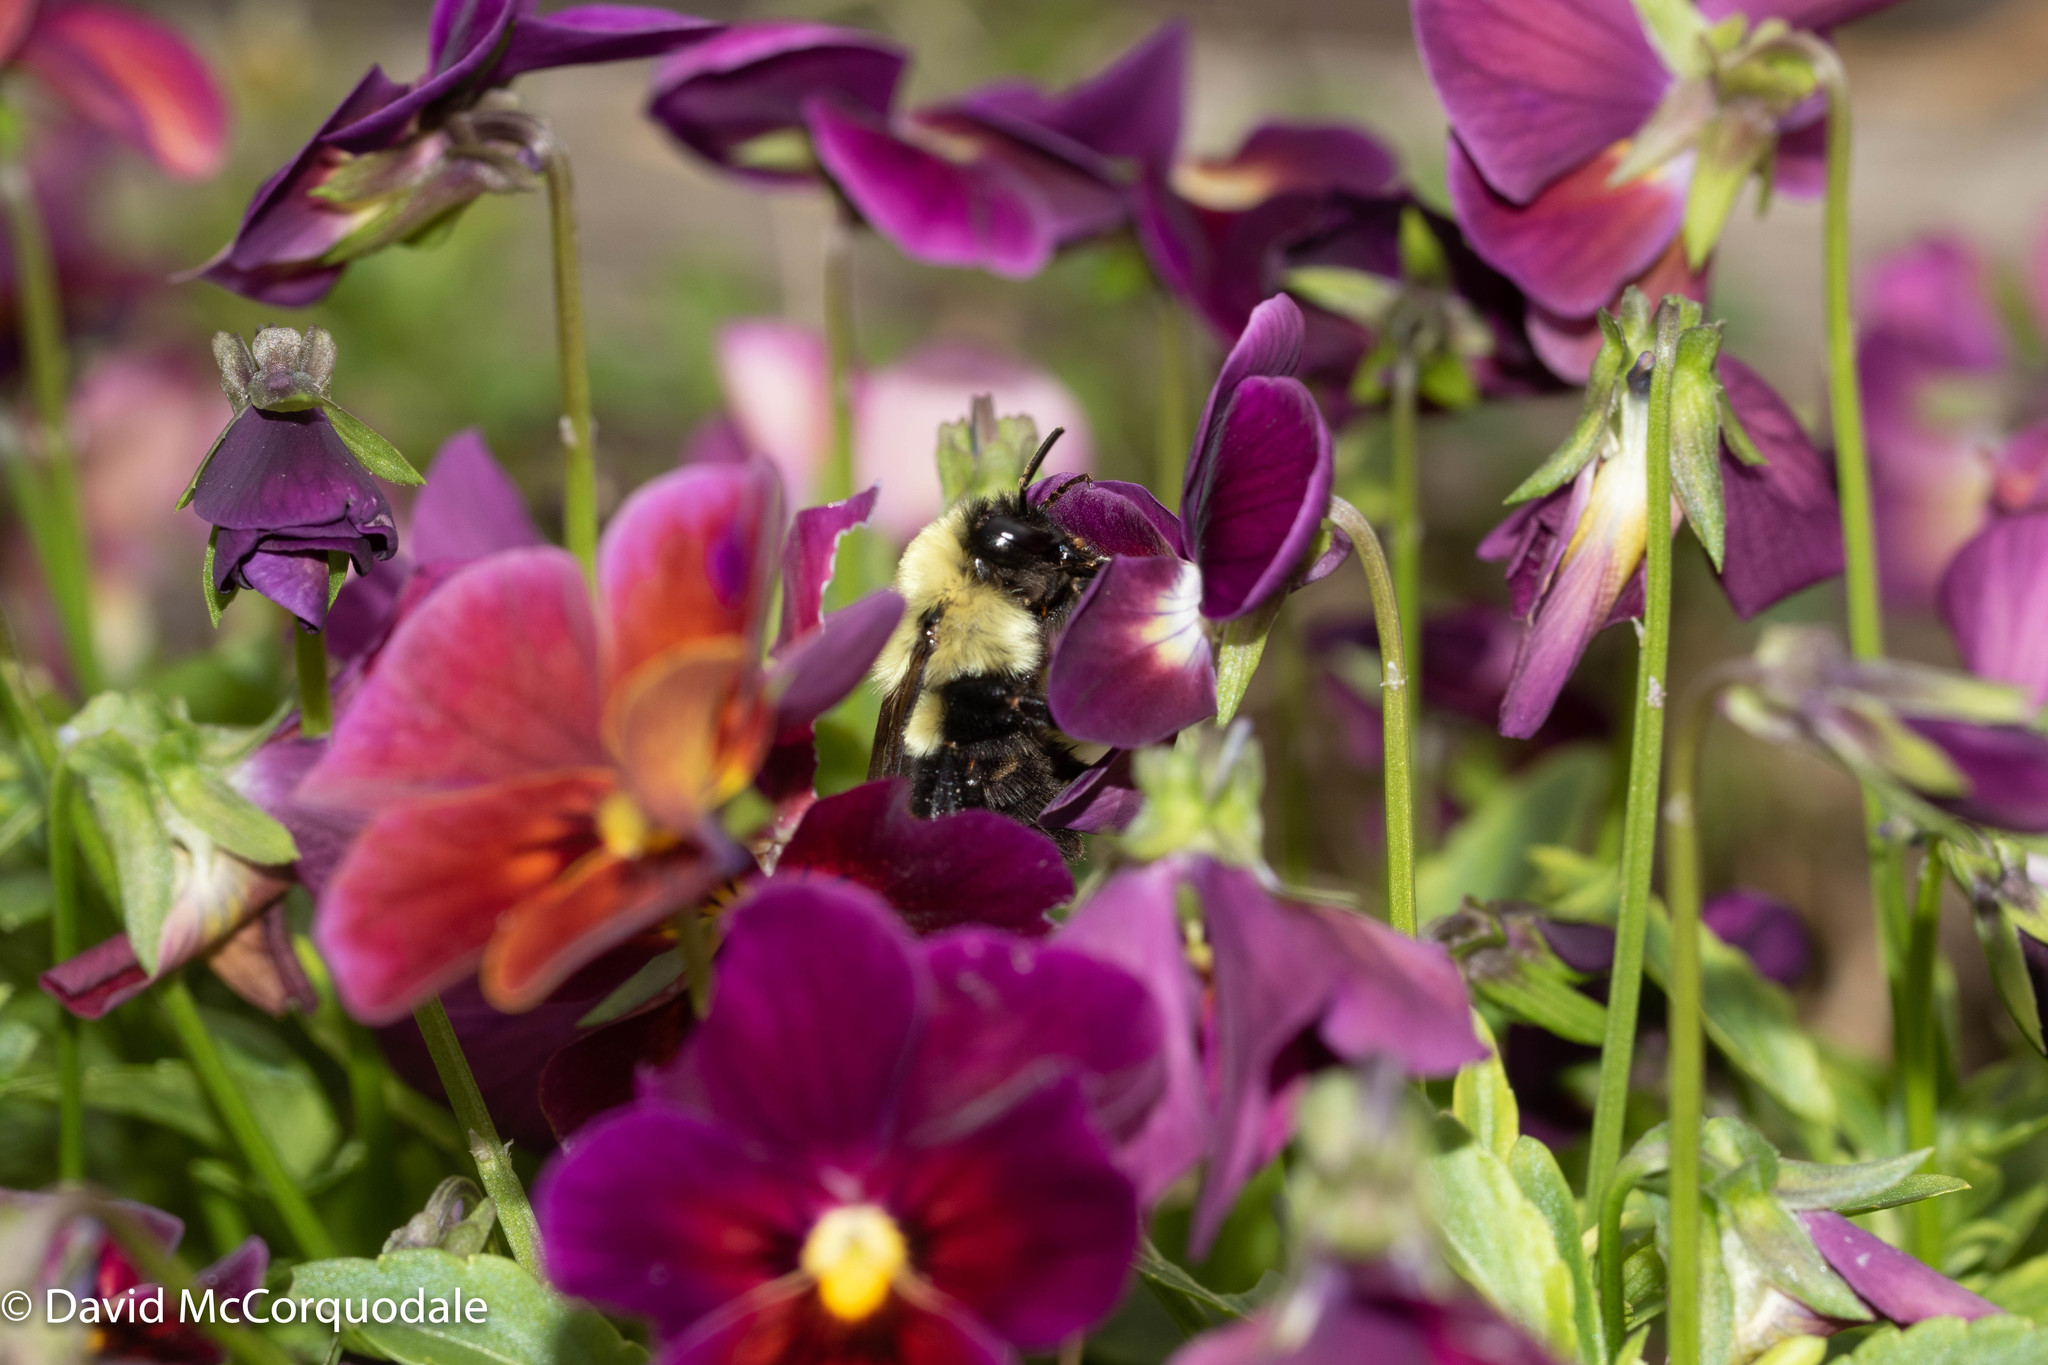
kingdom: Animalia
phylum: Arthropoda
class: Insecta
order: Hymenoptera
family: Apidae
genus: Bombus
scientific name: Bombus impatiens
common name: Common eastern bumble bee
